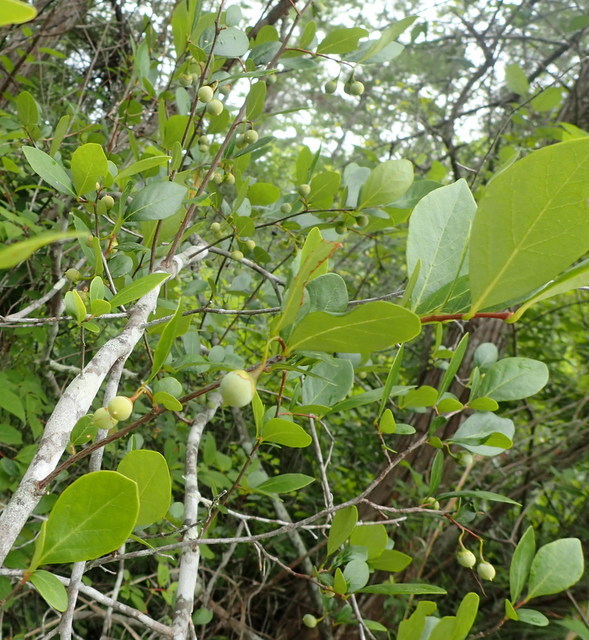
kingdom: Plantae
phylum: Tracheophyta
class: Magnoliopsida
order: Ericales
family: Styracaceae
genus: Styrax
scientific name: Styrax americanus
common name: American snowbell
